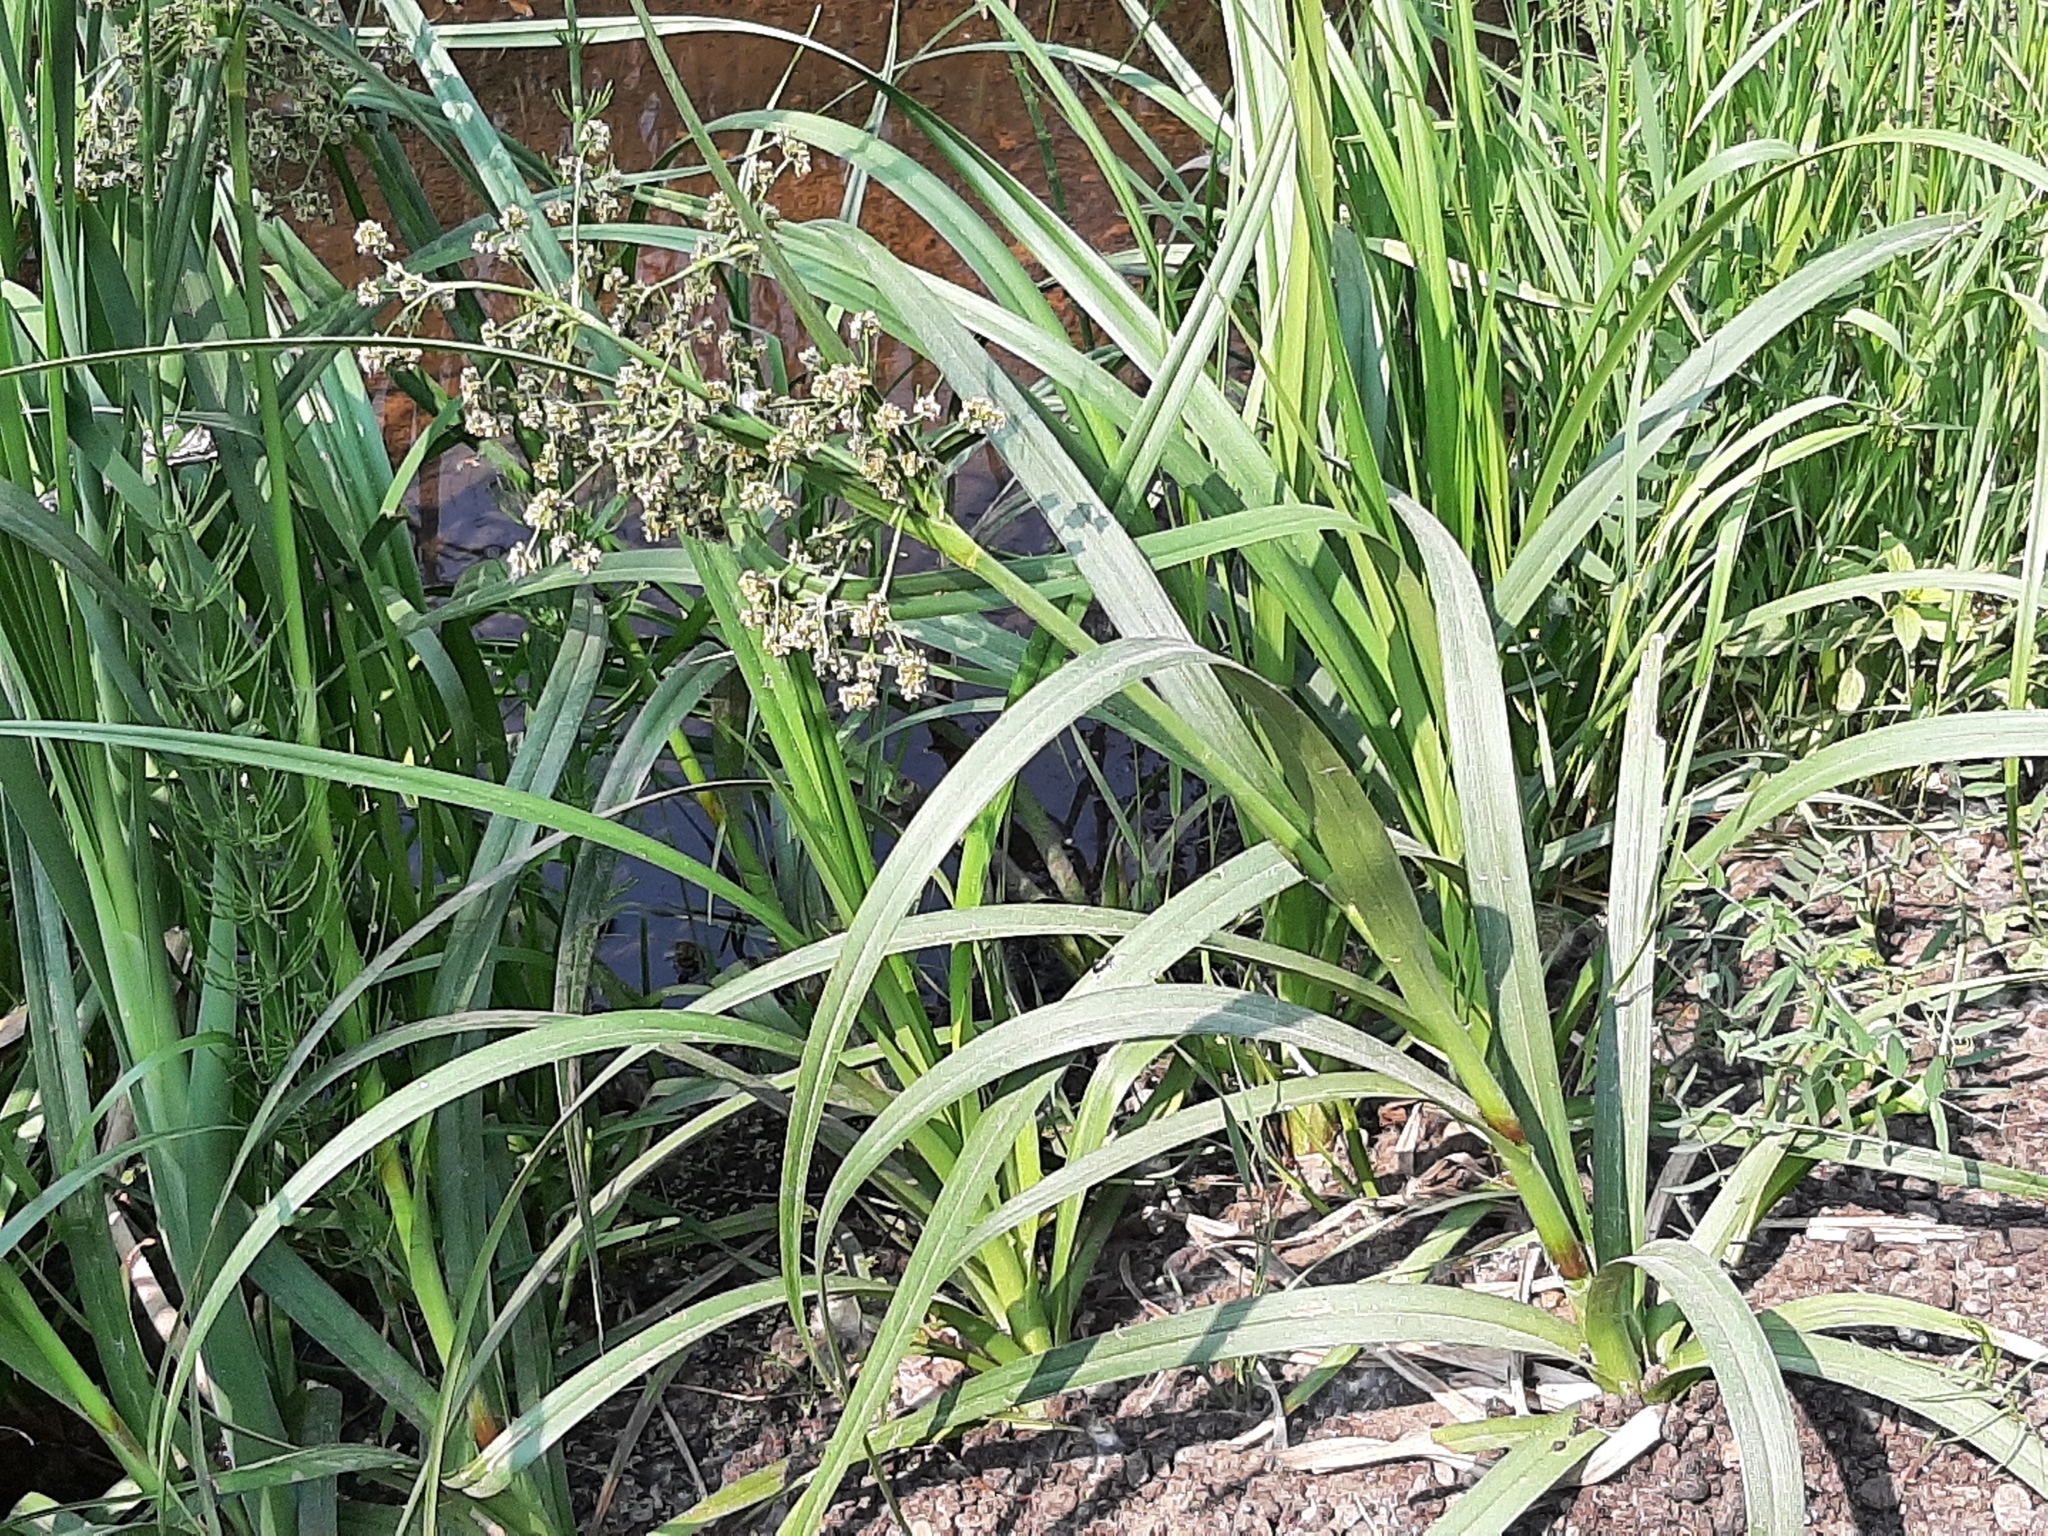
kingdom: Plantae
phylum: Tracheophyta
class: Liliopsida
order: Poales
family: Cyperaceae
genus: Scirpus
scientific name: Scirpus microcarpus
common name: Panicled bulrush
